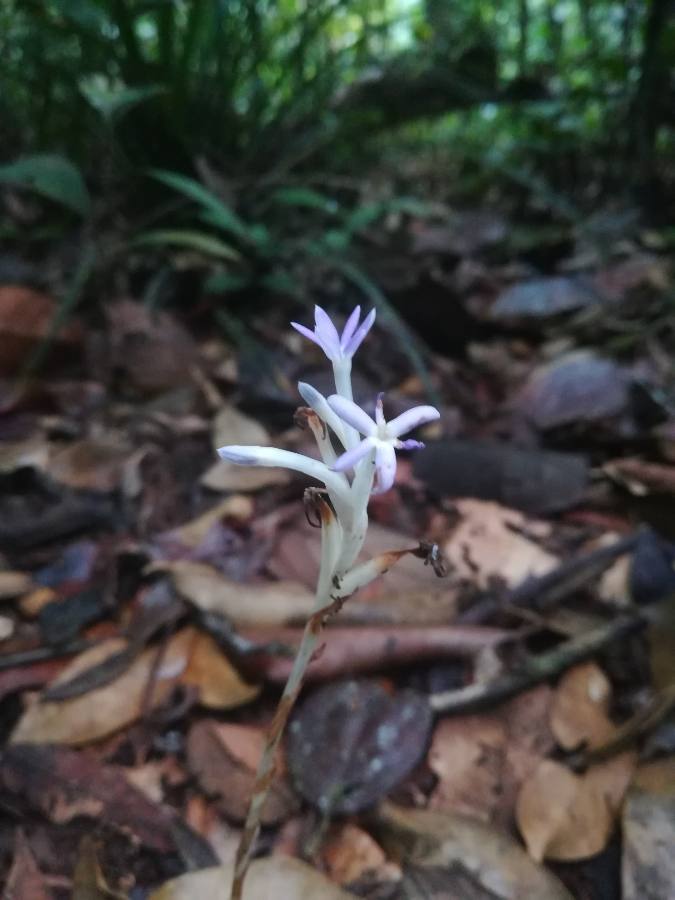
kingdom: Plantae
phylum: Tracheophyta
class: Liliopsida
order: Dioscoreales
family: Burmanniaceae
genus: Campylosiphon
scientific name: Campylosiphon purpurascens
